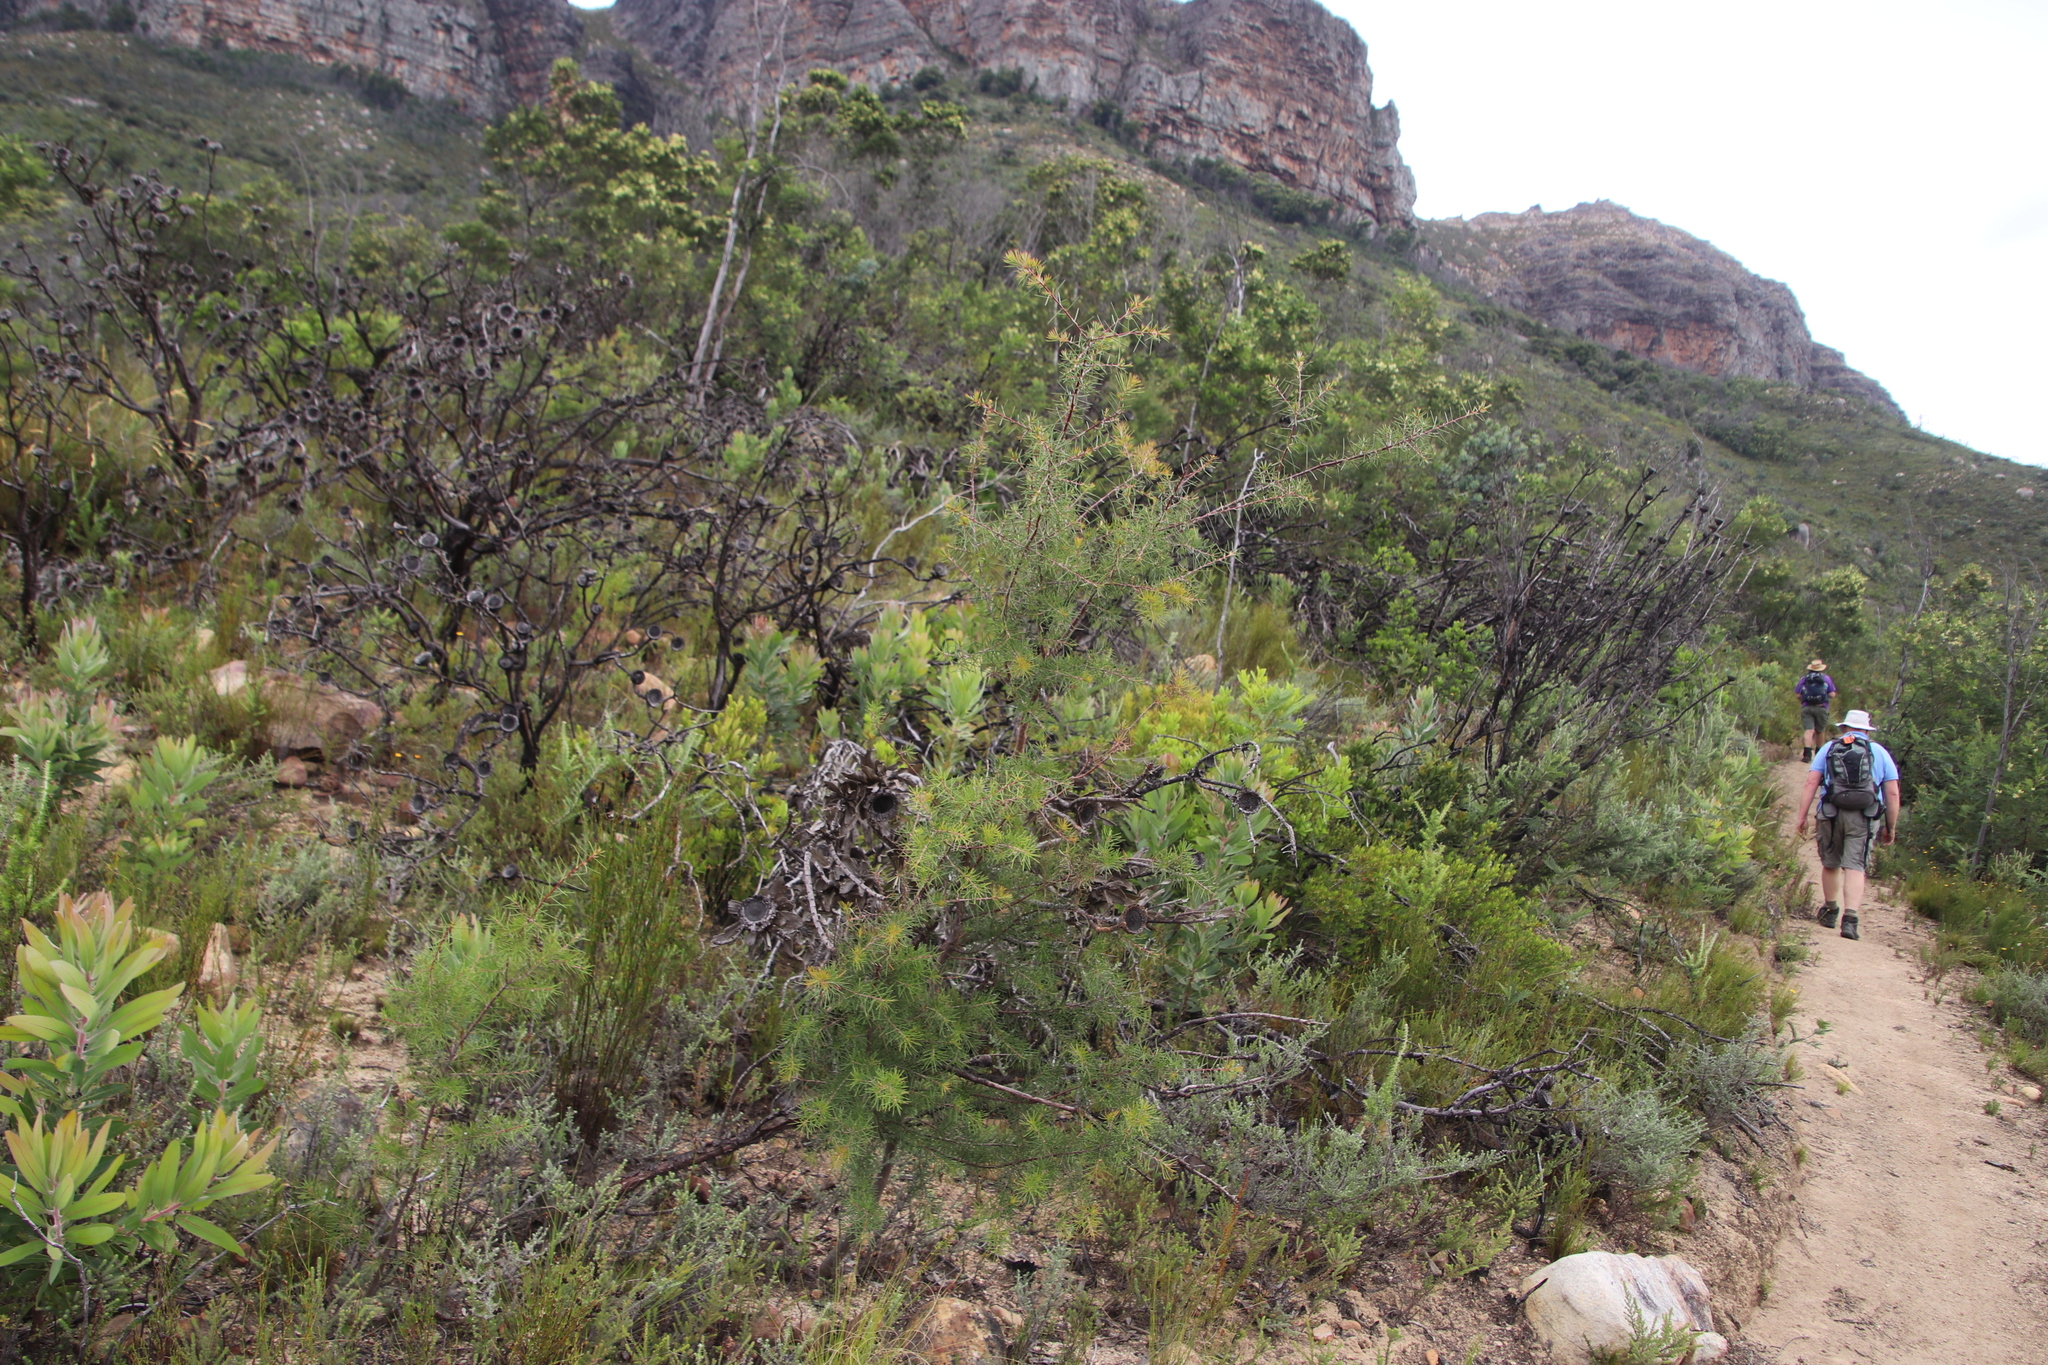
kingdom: Plantae
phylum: Tracheophyta
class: Magnoliopsida
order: Proteales
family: Proteaceae
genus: Hakea
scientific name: Hakea sericea
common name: Needle bush
